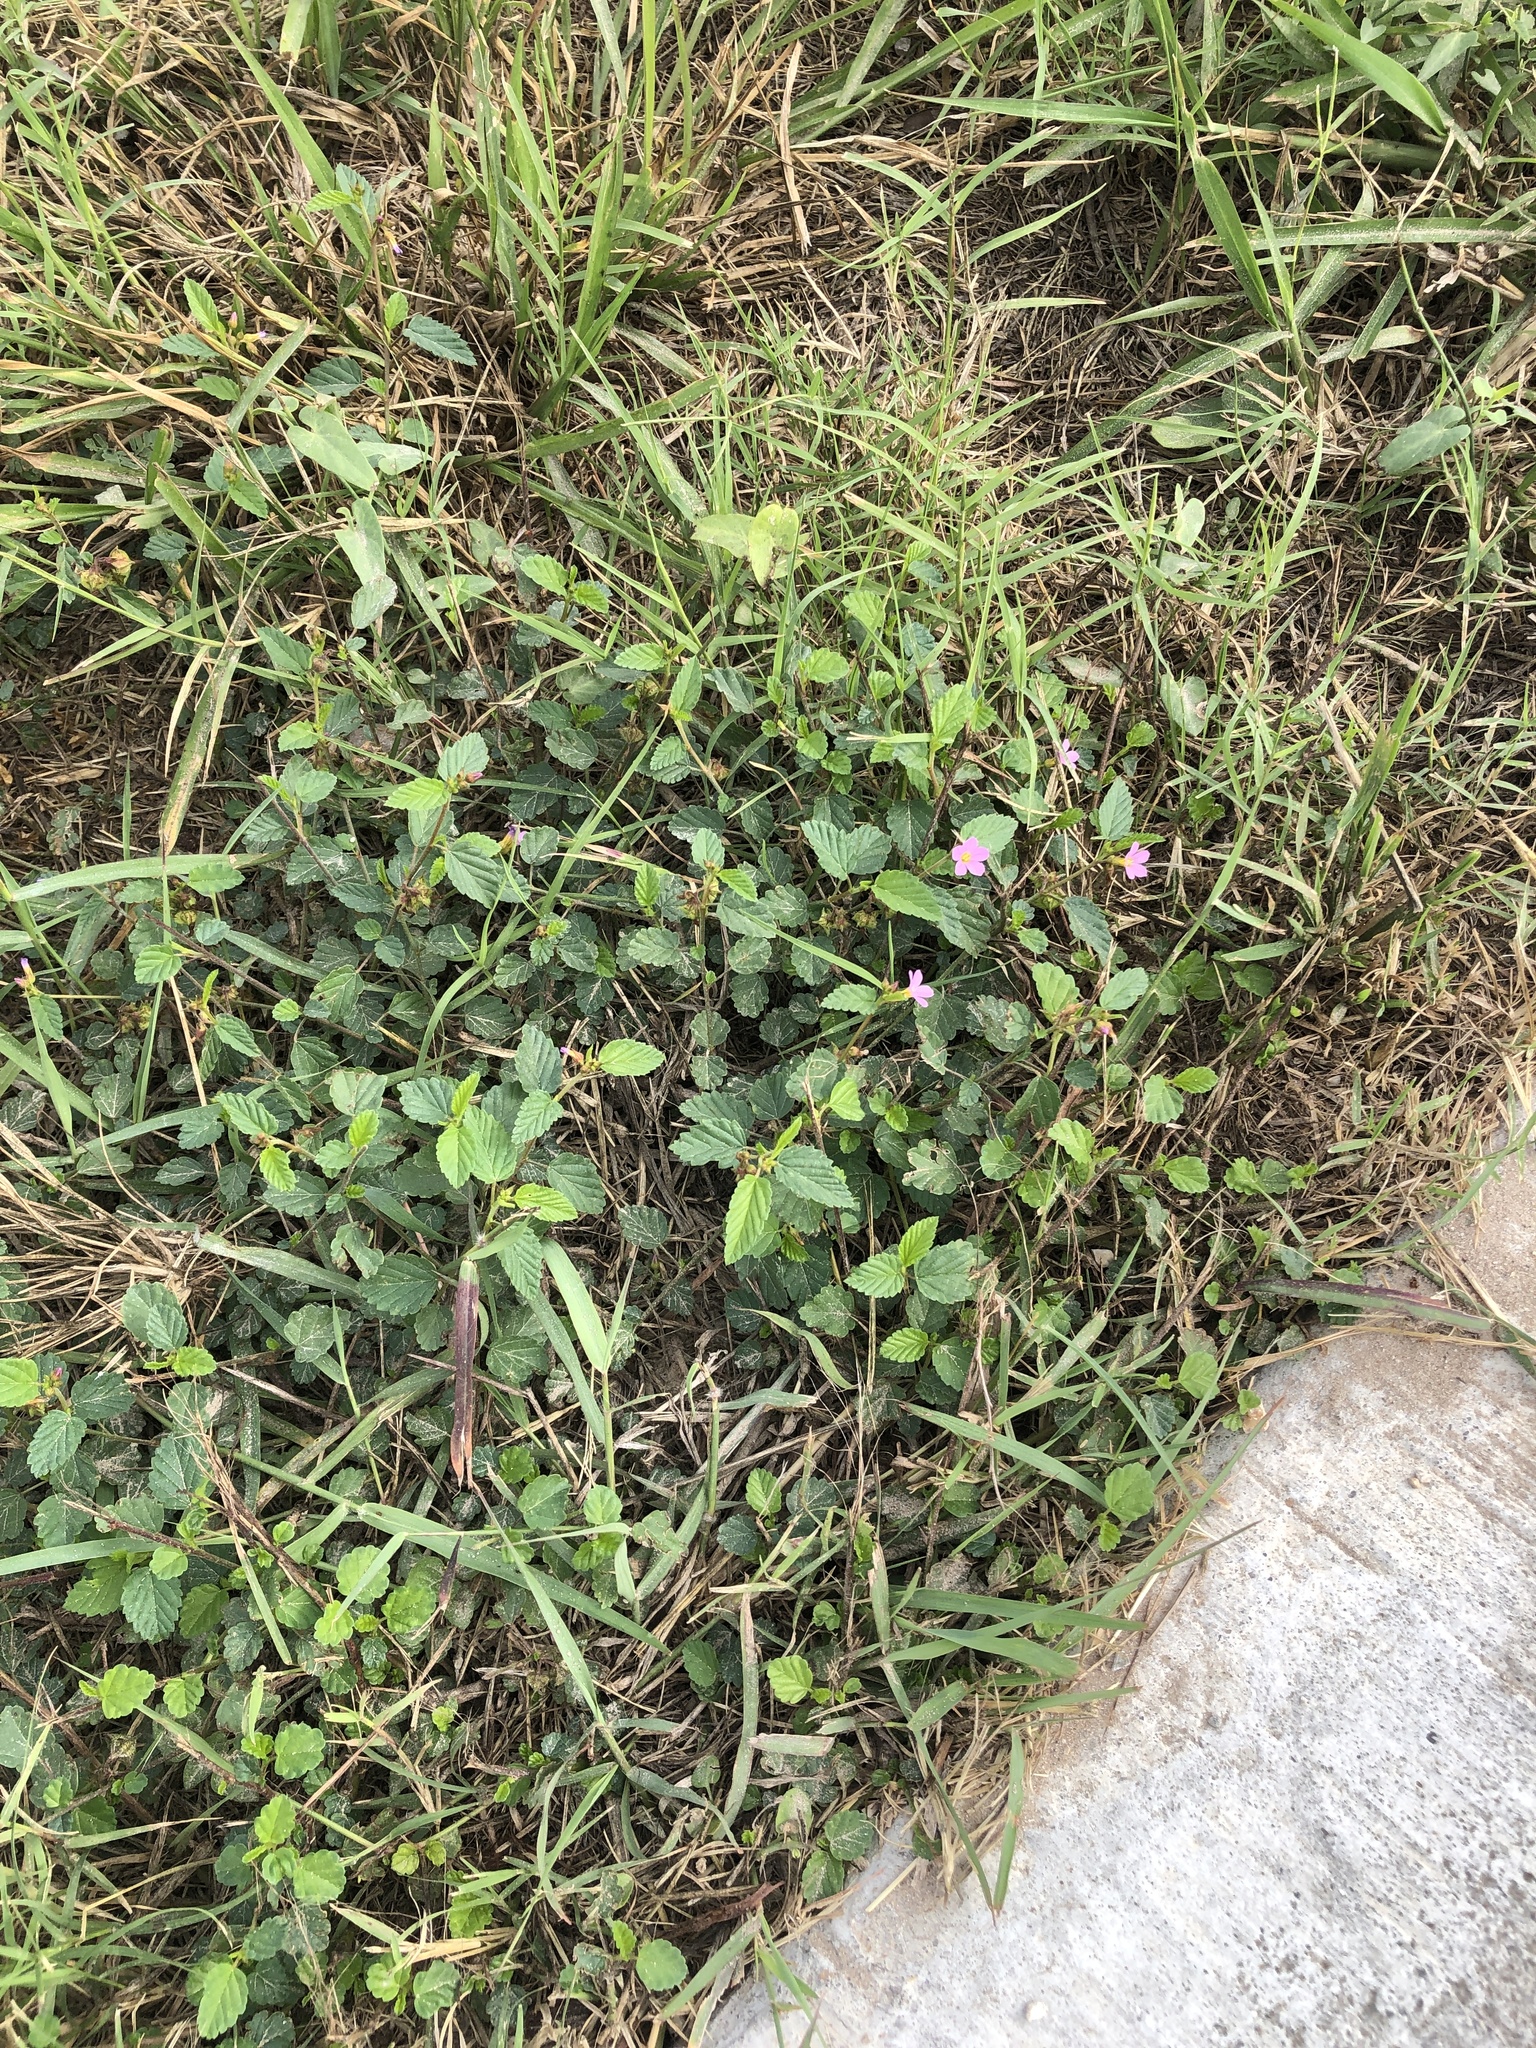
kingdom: Plantae
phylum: Tracheophyta
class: Magnoliopsida
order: Malvales
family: Malvaceae
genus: Melochia
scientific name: Melochia pyramidata
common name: Pyramidflower
